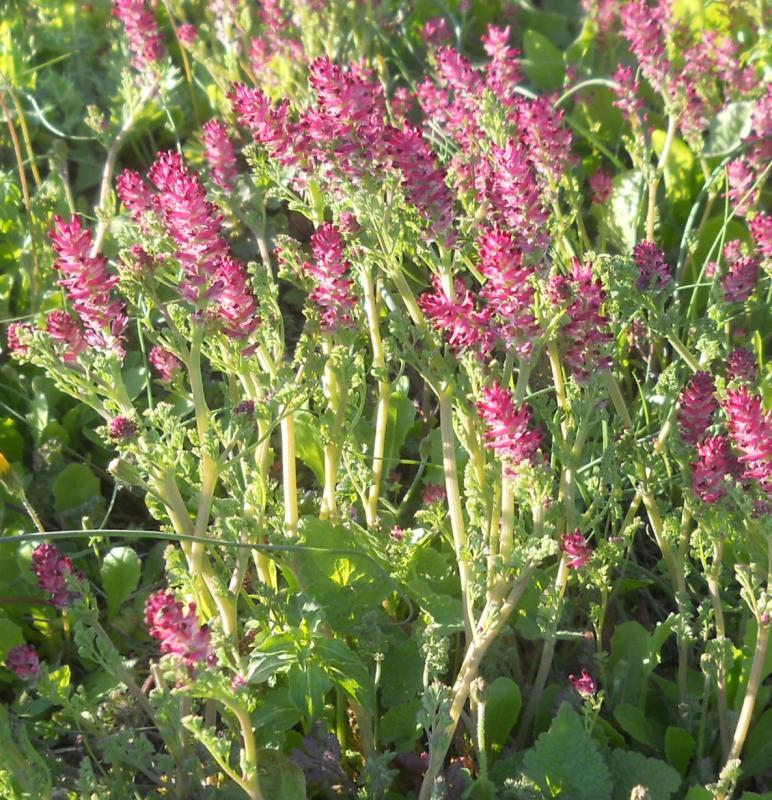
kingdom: Plantae
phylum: Tracheophyta
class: Magnoliopsida
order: Ranunculales
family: Papaveraceae
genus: Fumaria
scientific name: Fumaria densiflora
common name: Dense-flowered fumitory
